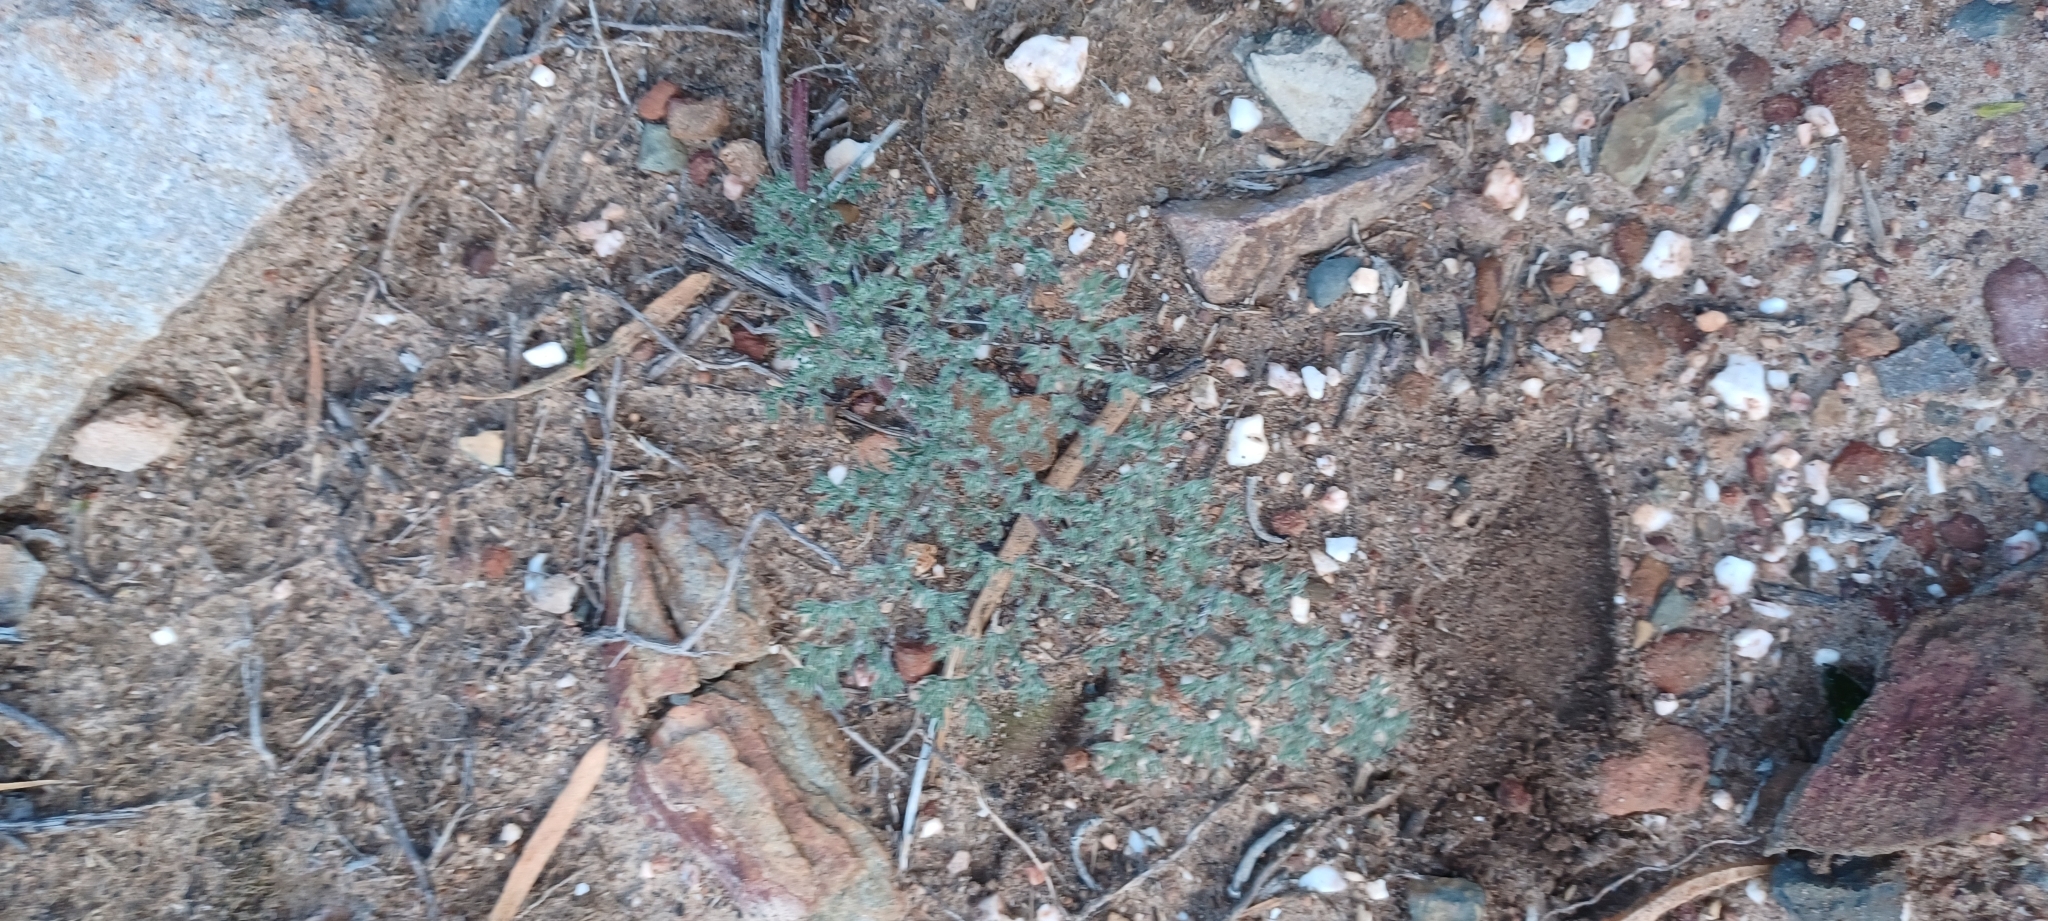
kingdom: Plantae
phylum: Tracheophyta
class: Magnoliopsida
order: Geraniales
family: Geraniaceae
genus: Pelargonium
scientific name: Pelargonium triste
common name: Night-scent pelargonium
